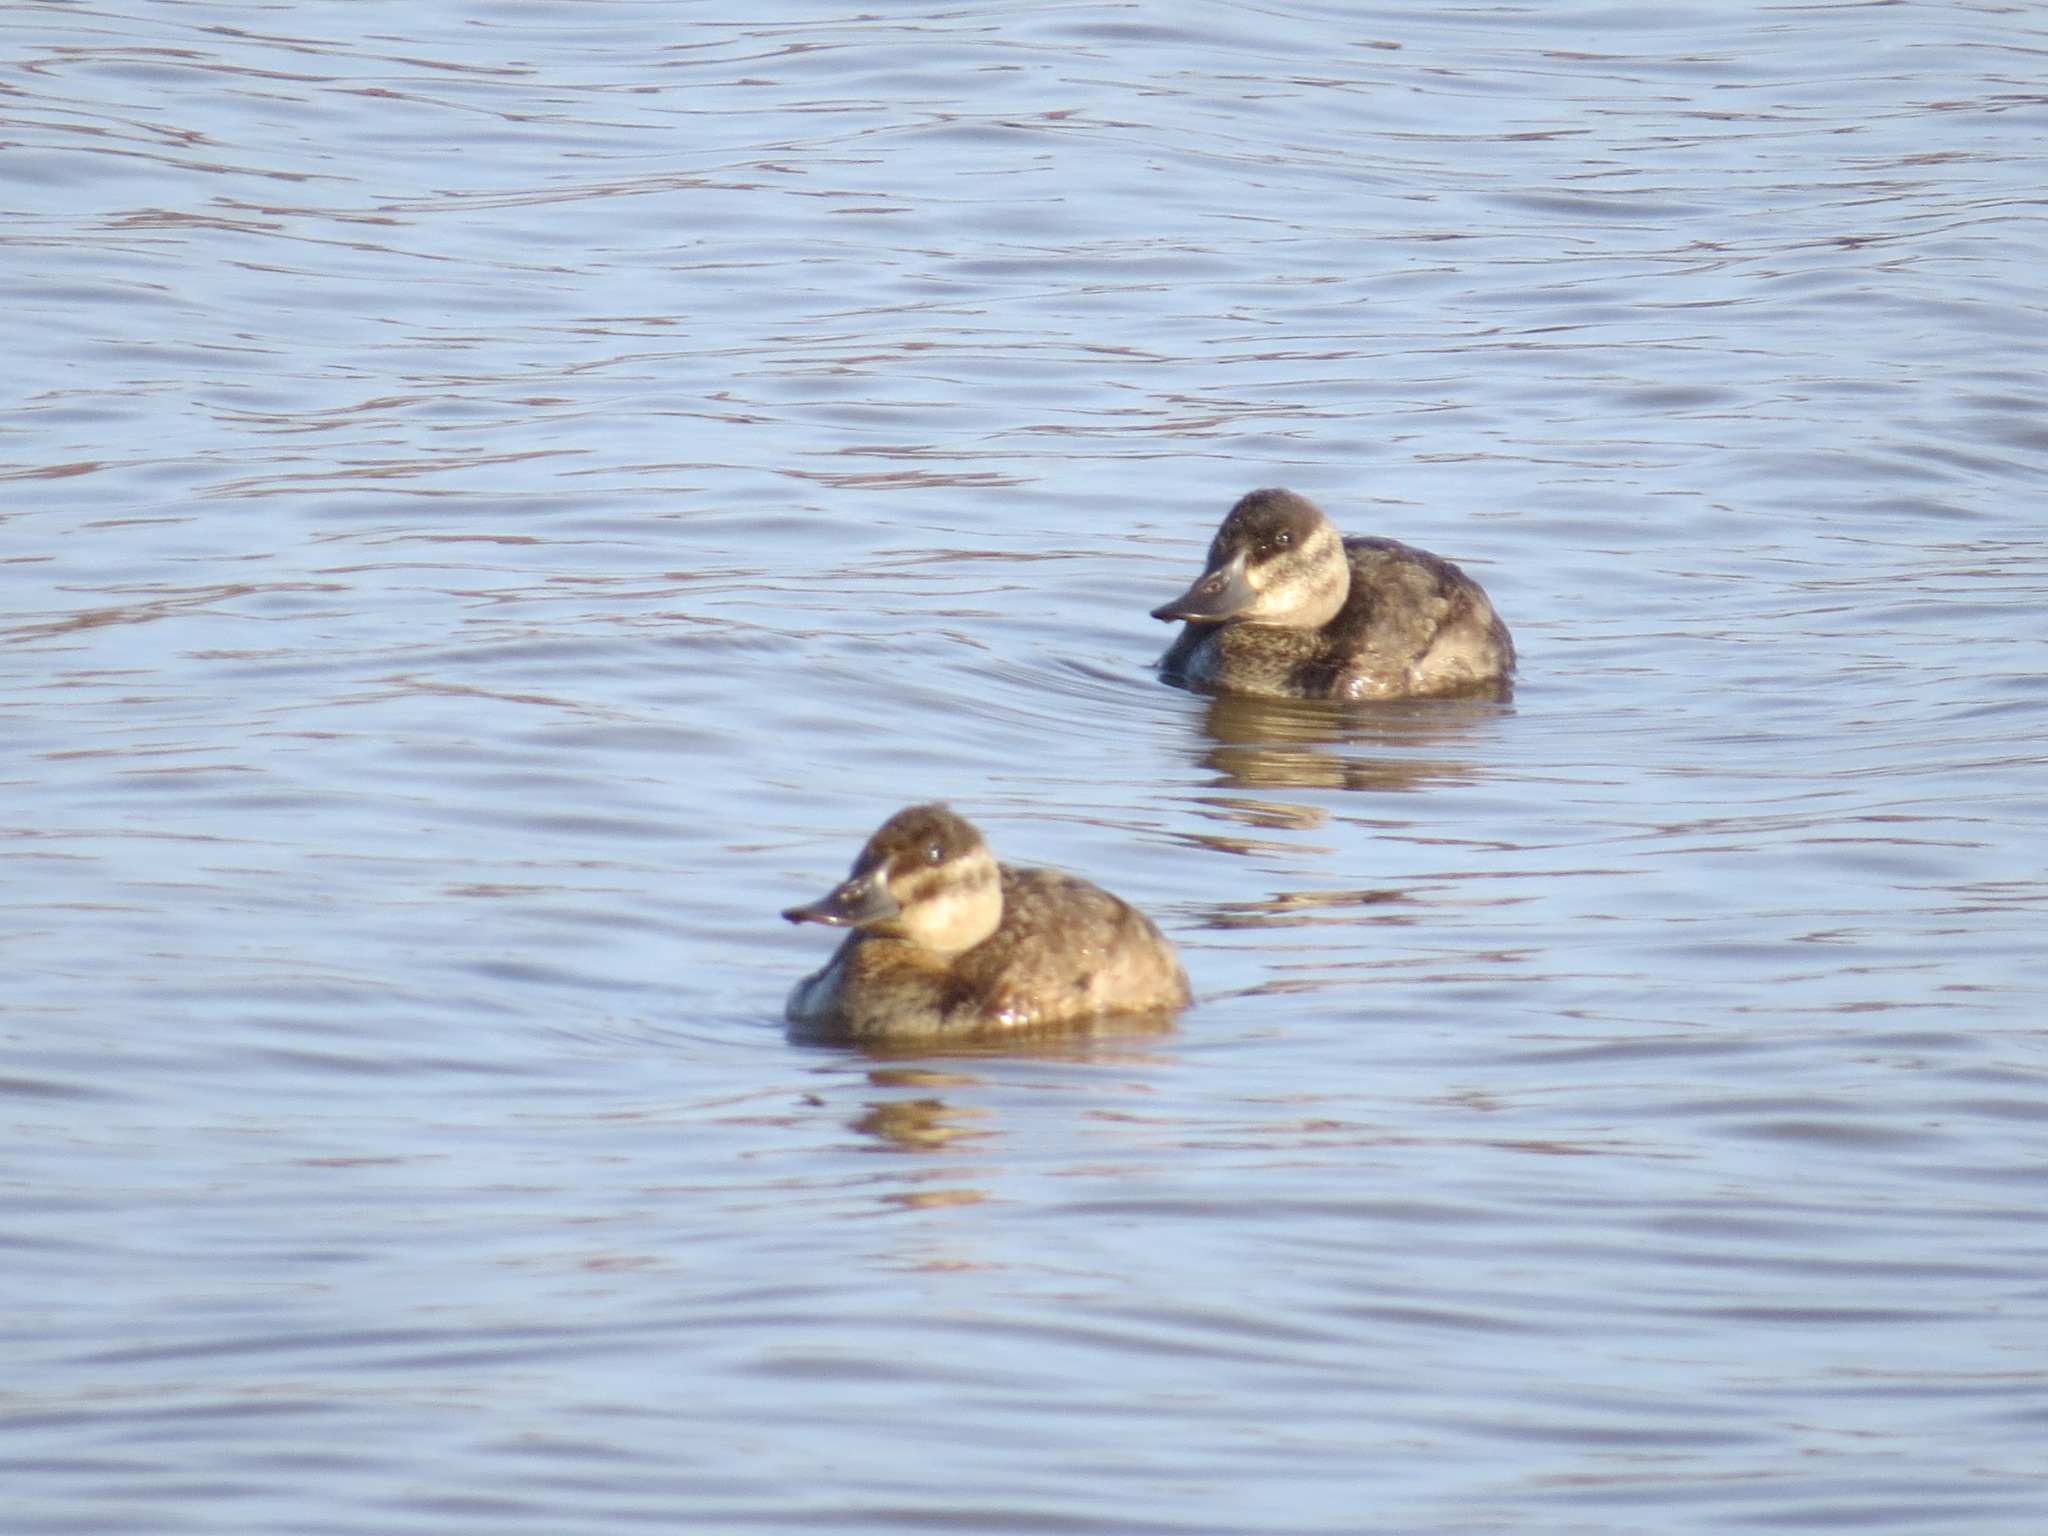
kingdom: Animalia
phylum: Chordata
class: Aves
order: Anseriformes
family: Anatidae
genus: Oxyura
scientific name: Oxyura jamaicensis
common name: Ruddy duck
